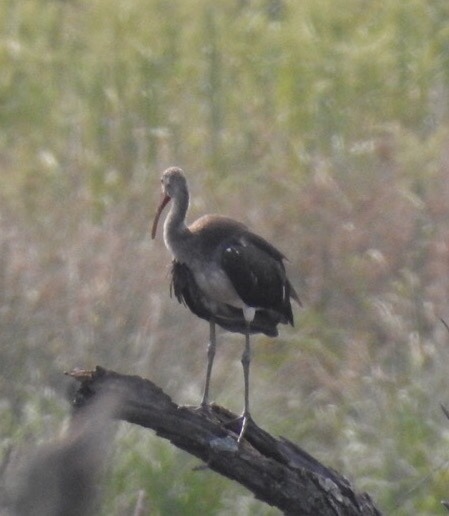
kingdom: Animalia
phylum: Chordata
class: Aves
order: Pelecaniformes
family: Threskiornithidae
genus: Eudocimus
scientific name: Eudocimus albus
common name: White ibis
